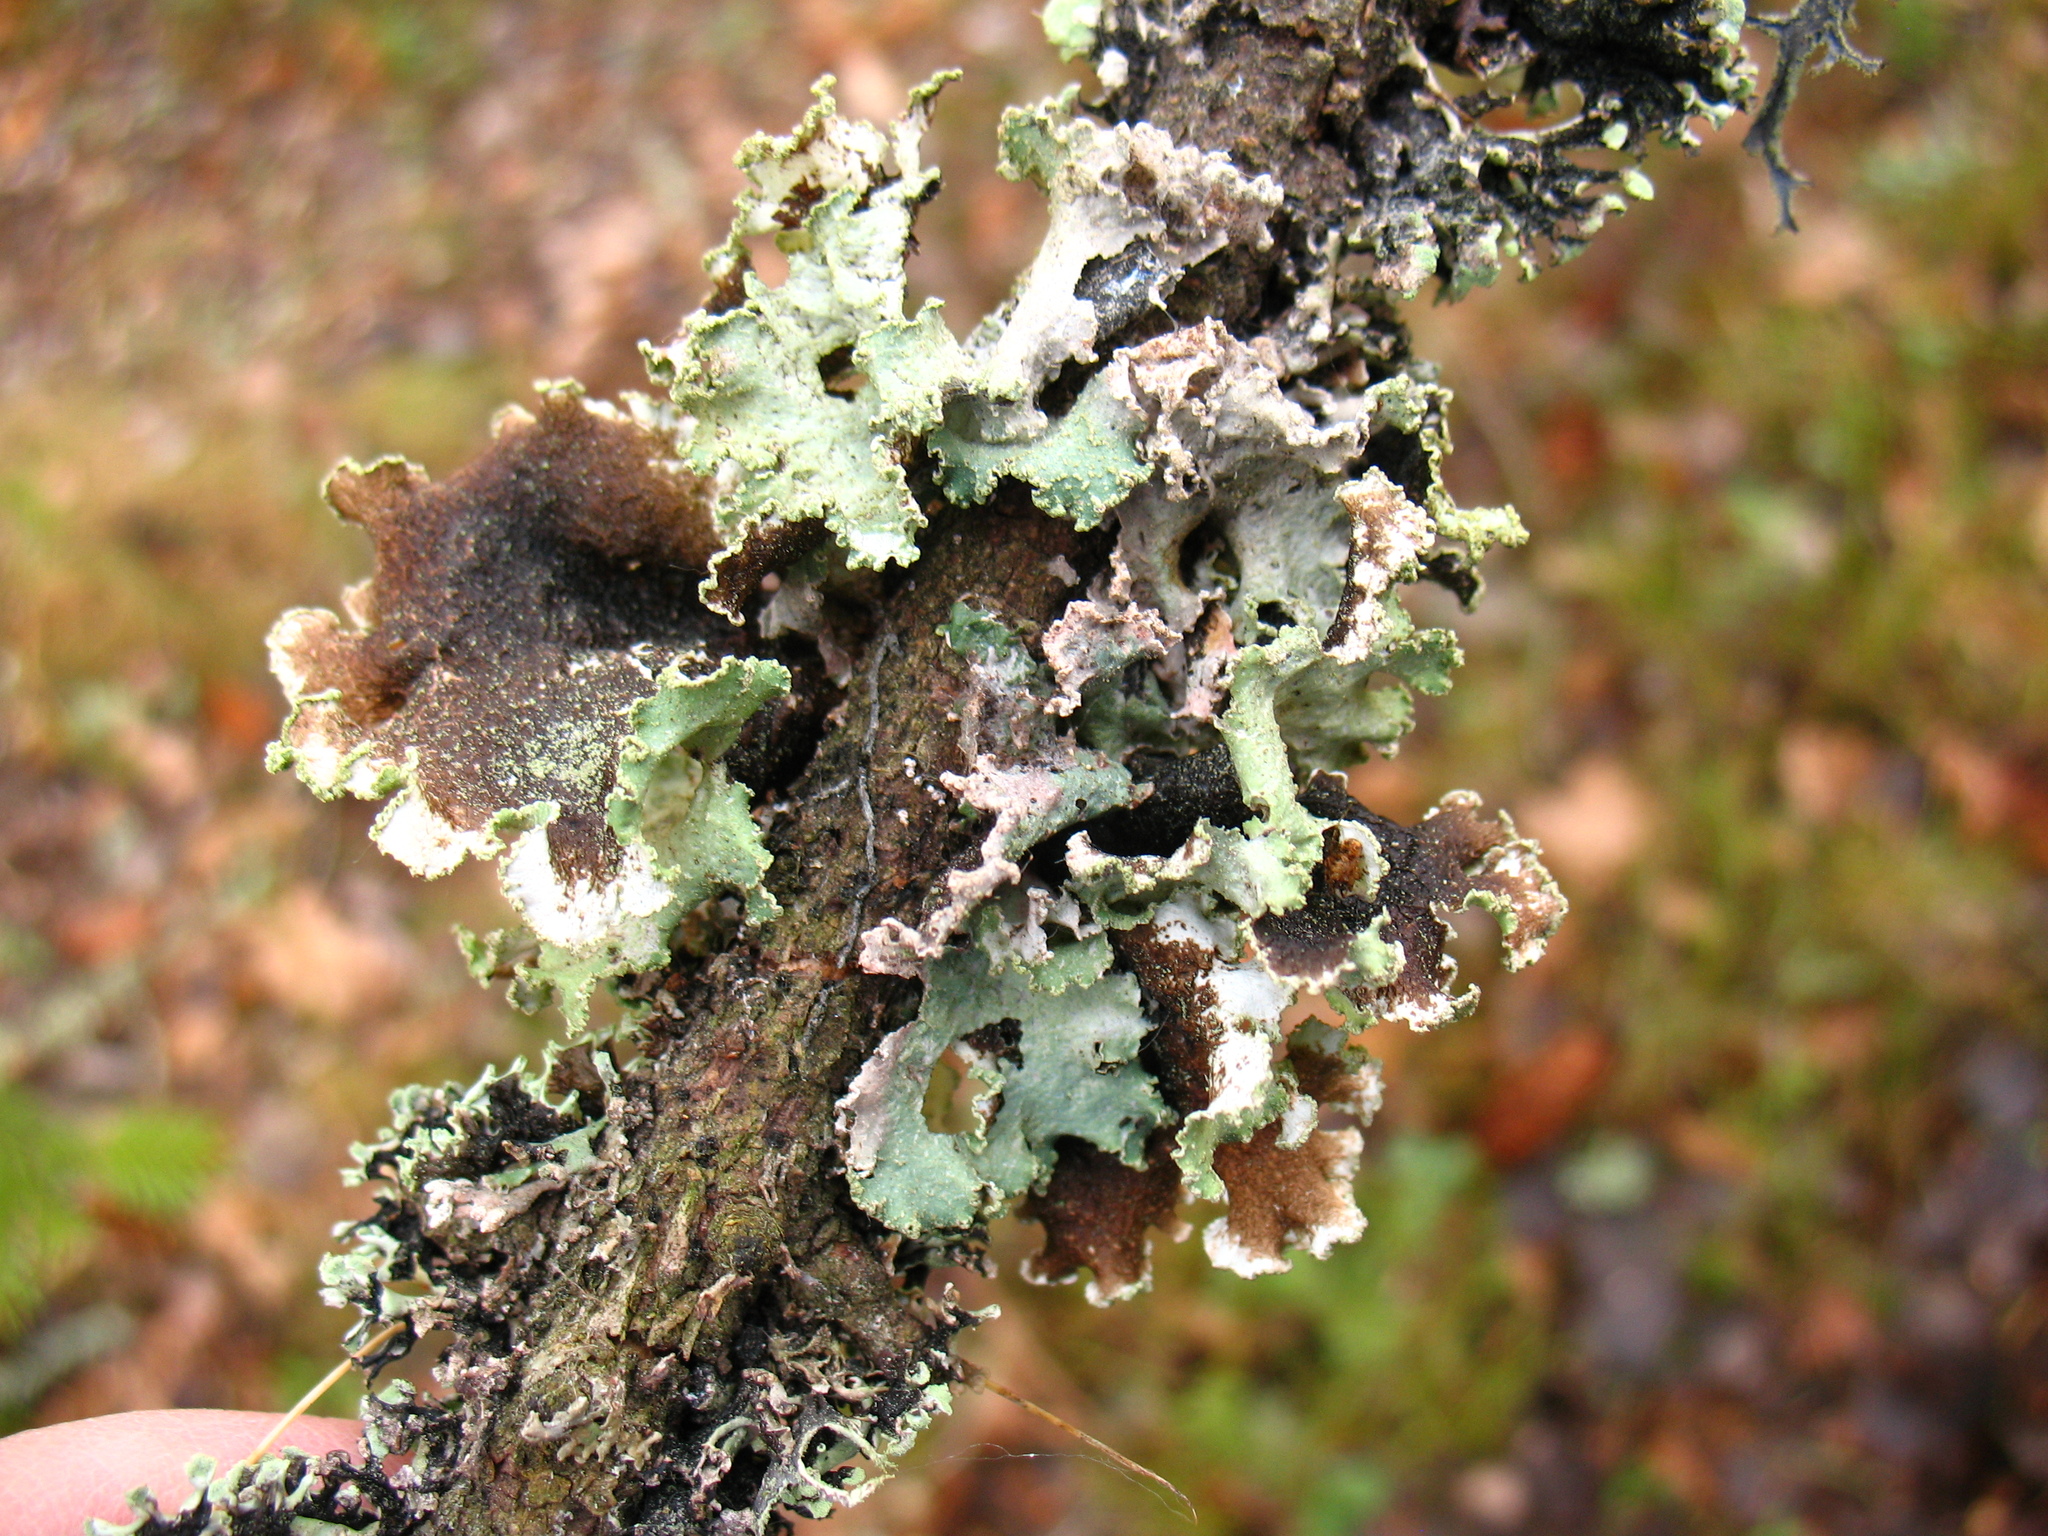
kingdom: Fungi
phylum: Ascomycota
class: Lecanoromycetes
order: Lecanorales
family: Parmeliaceae
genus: Platismatia
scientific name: Platismatia glauca
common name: Varied rag lichen
